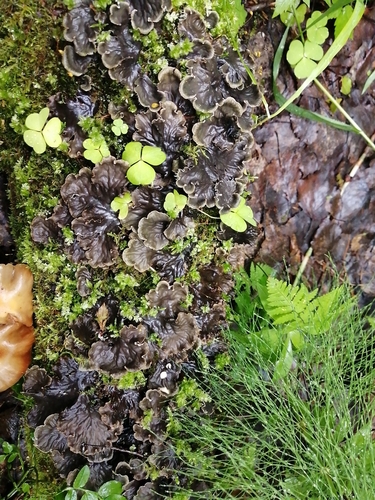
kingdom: Fungi
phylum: Ascomycota
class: Lecanoromycetes
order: Peltigerales
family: Peltigeraceae
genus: Peltigera
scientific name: Peltigera
